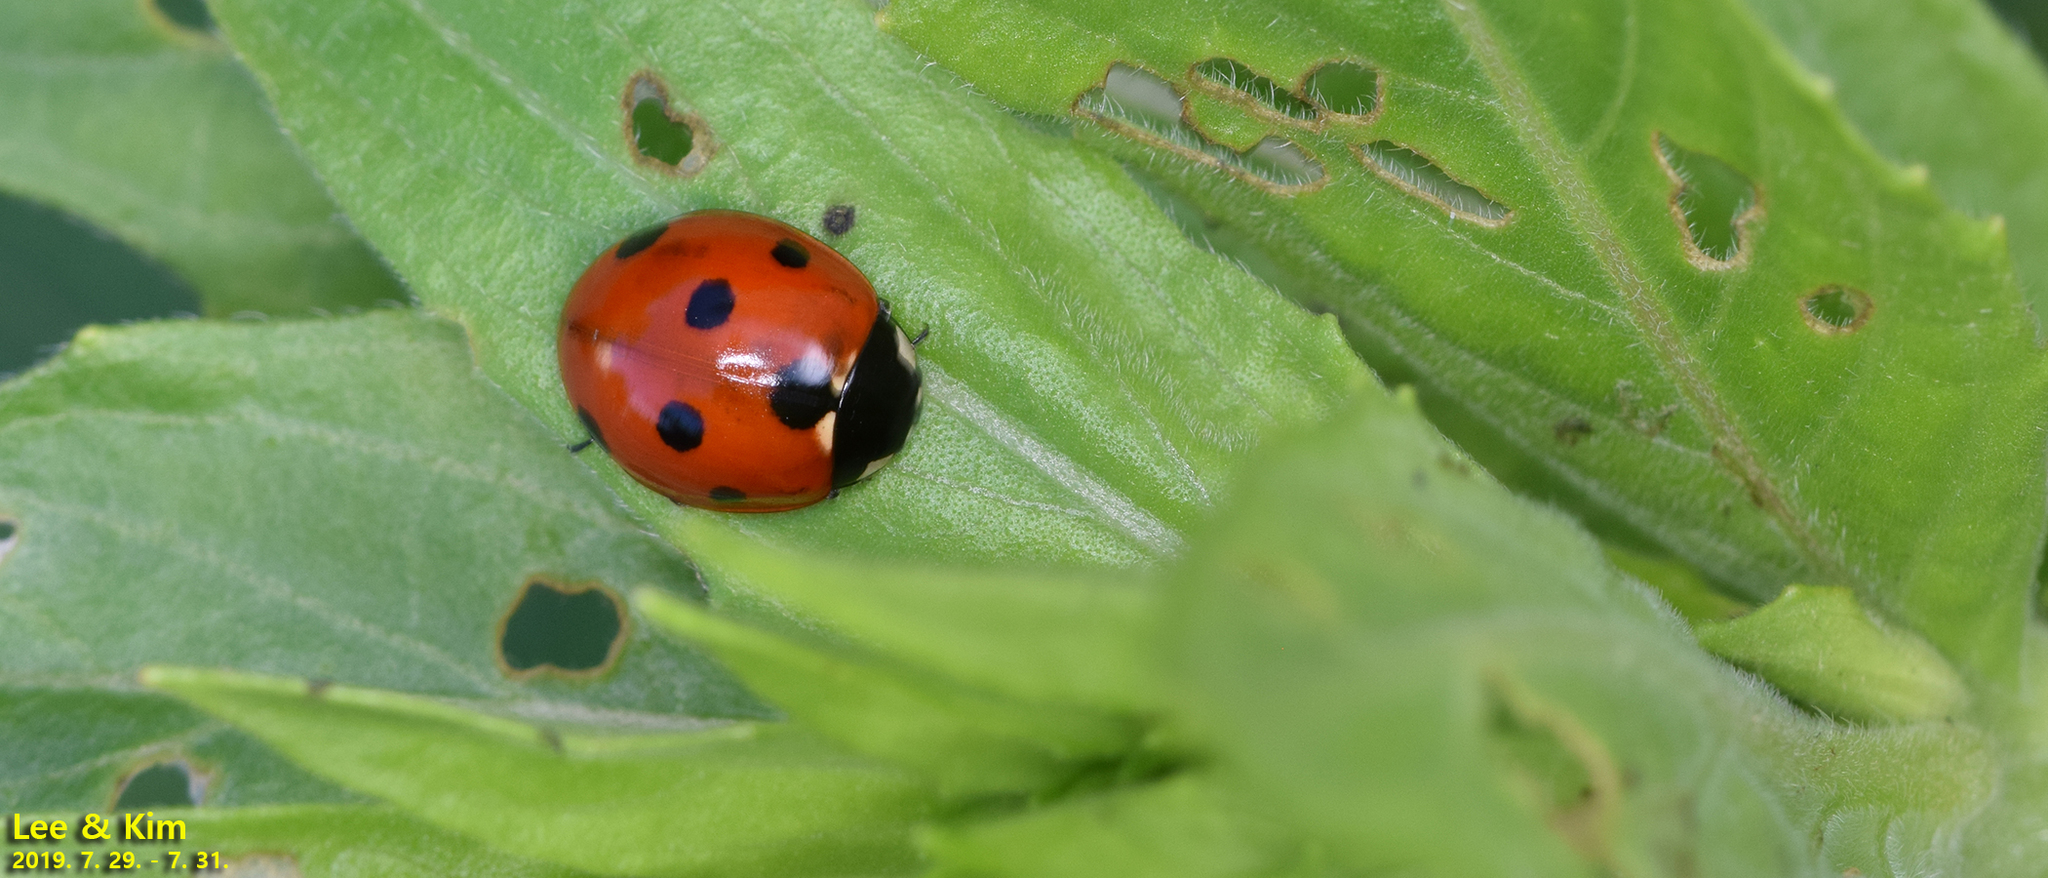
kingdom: Animalia
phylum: Arthropoda
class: Insecta
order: Coleoptera
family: Coccinellidae
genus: Coccinella
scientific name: Coccinella septempunctata
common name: Sevenspotted lady beetle
